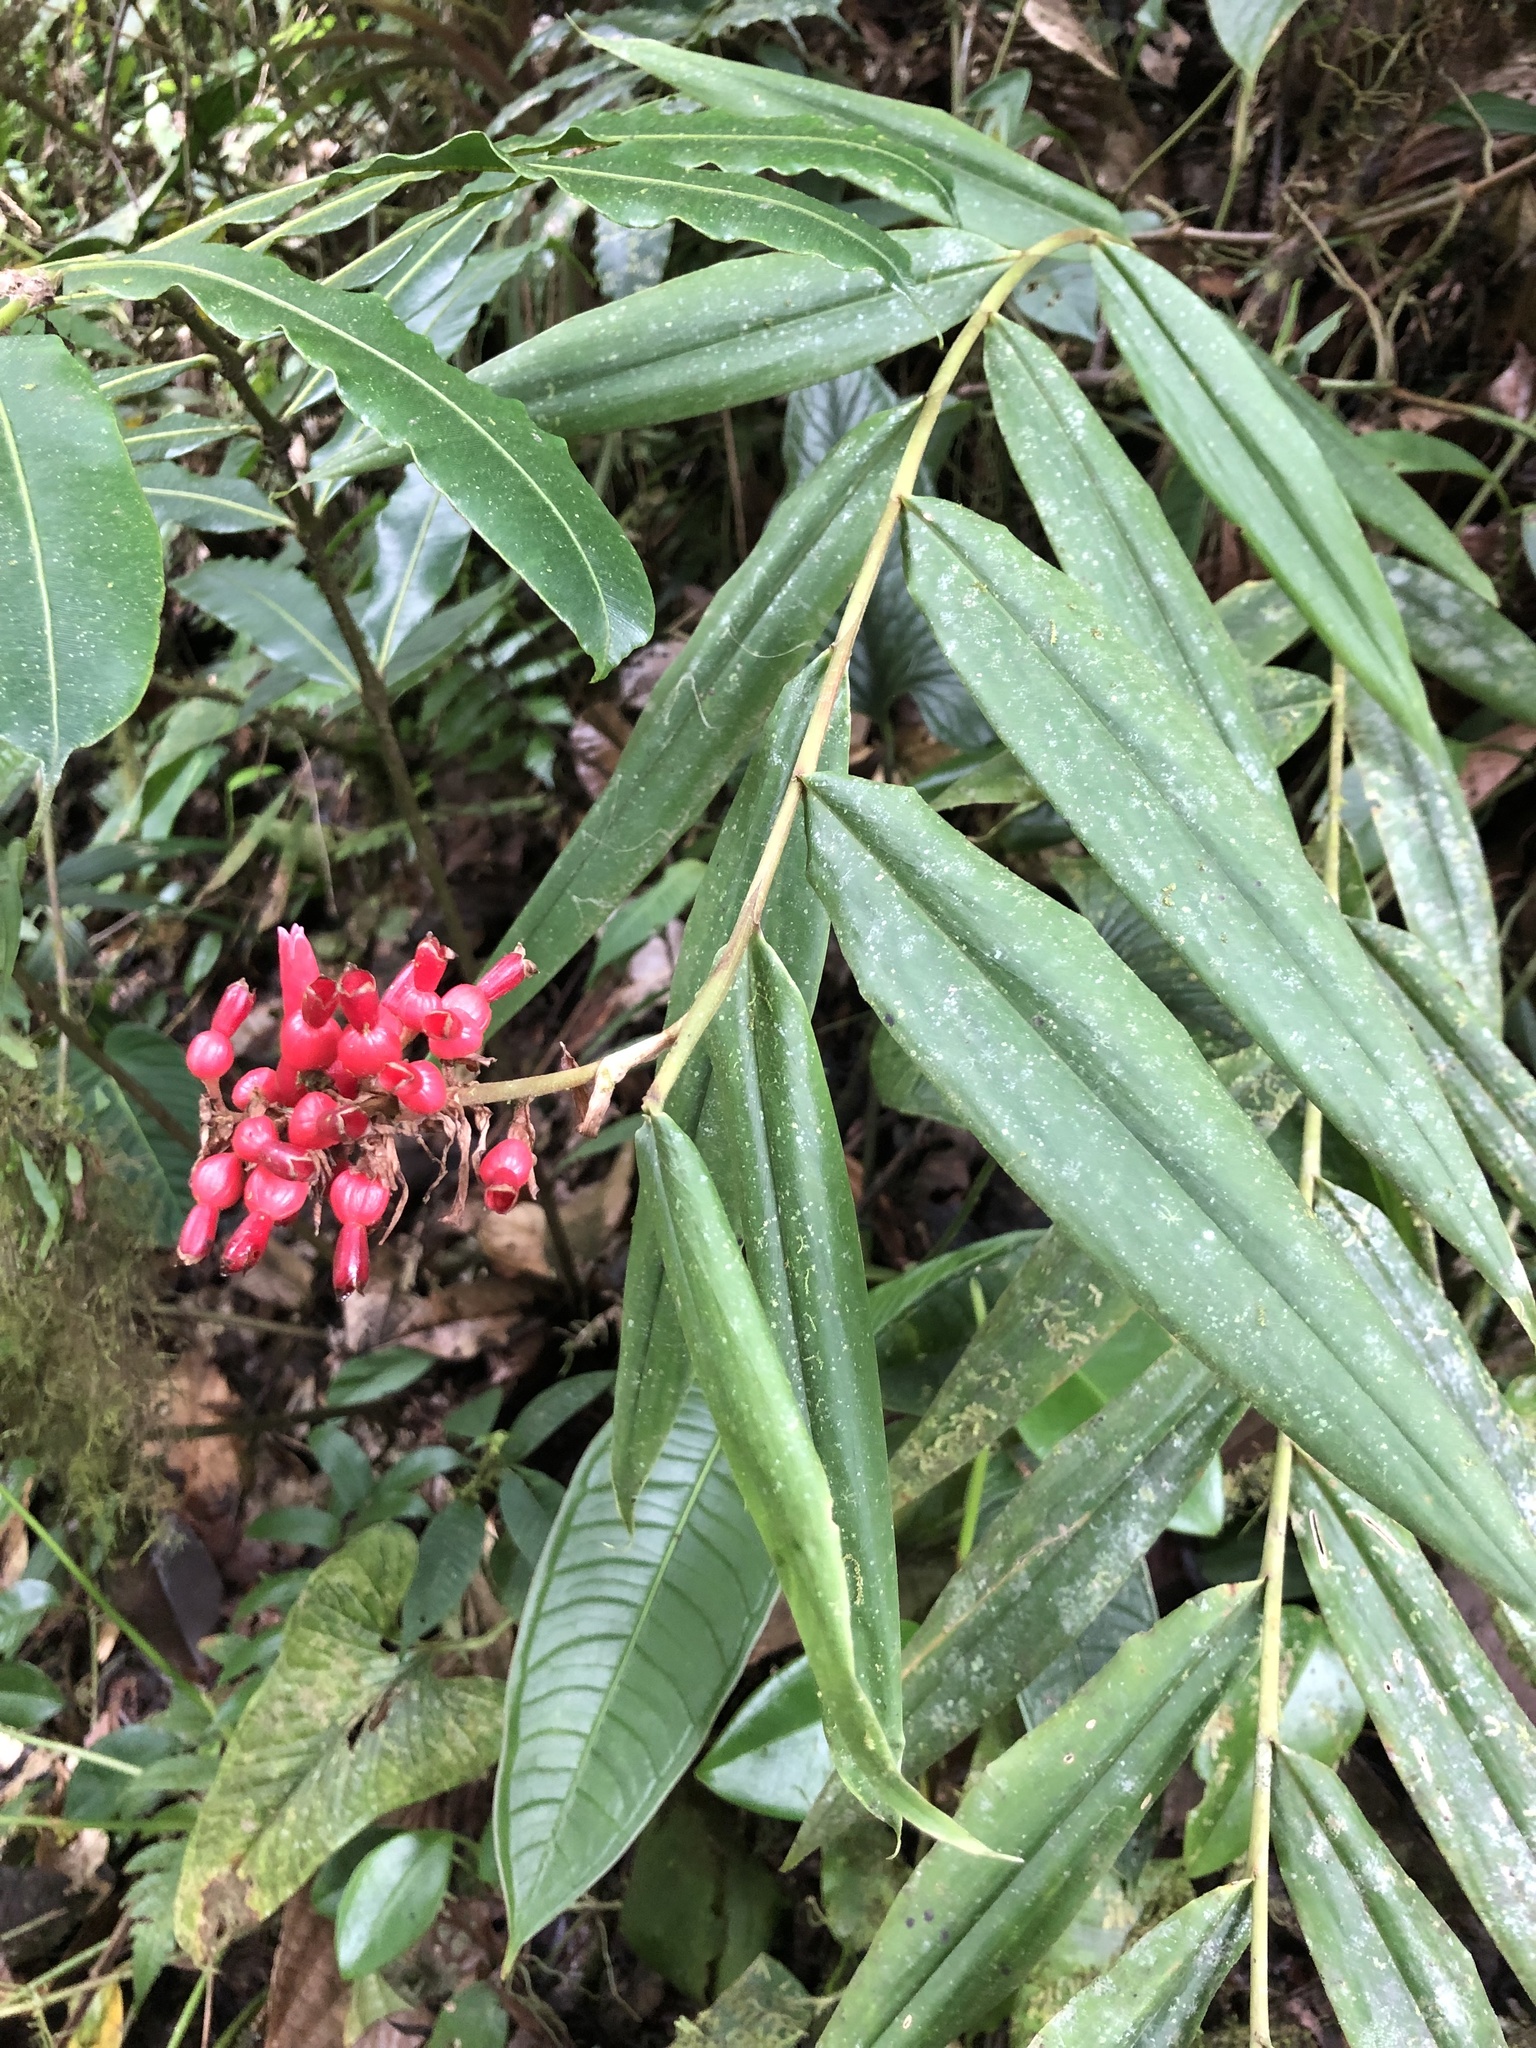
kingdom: Plantae
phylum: Tracheophyta
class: Liliopsida
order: Zingiberales
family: Zingiberaceae
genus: Renealmia
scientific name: Renealmia sessilifolia
